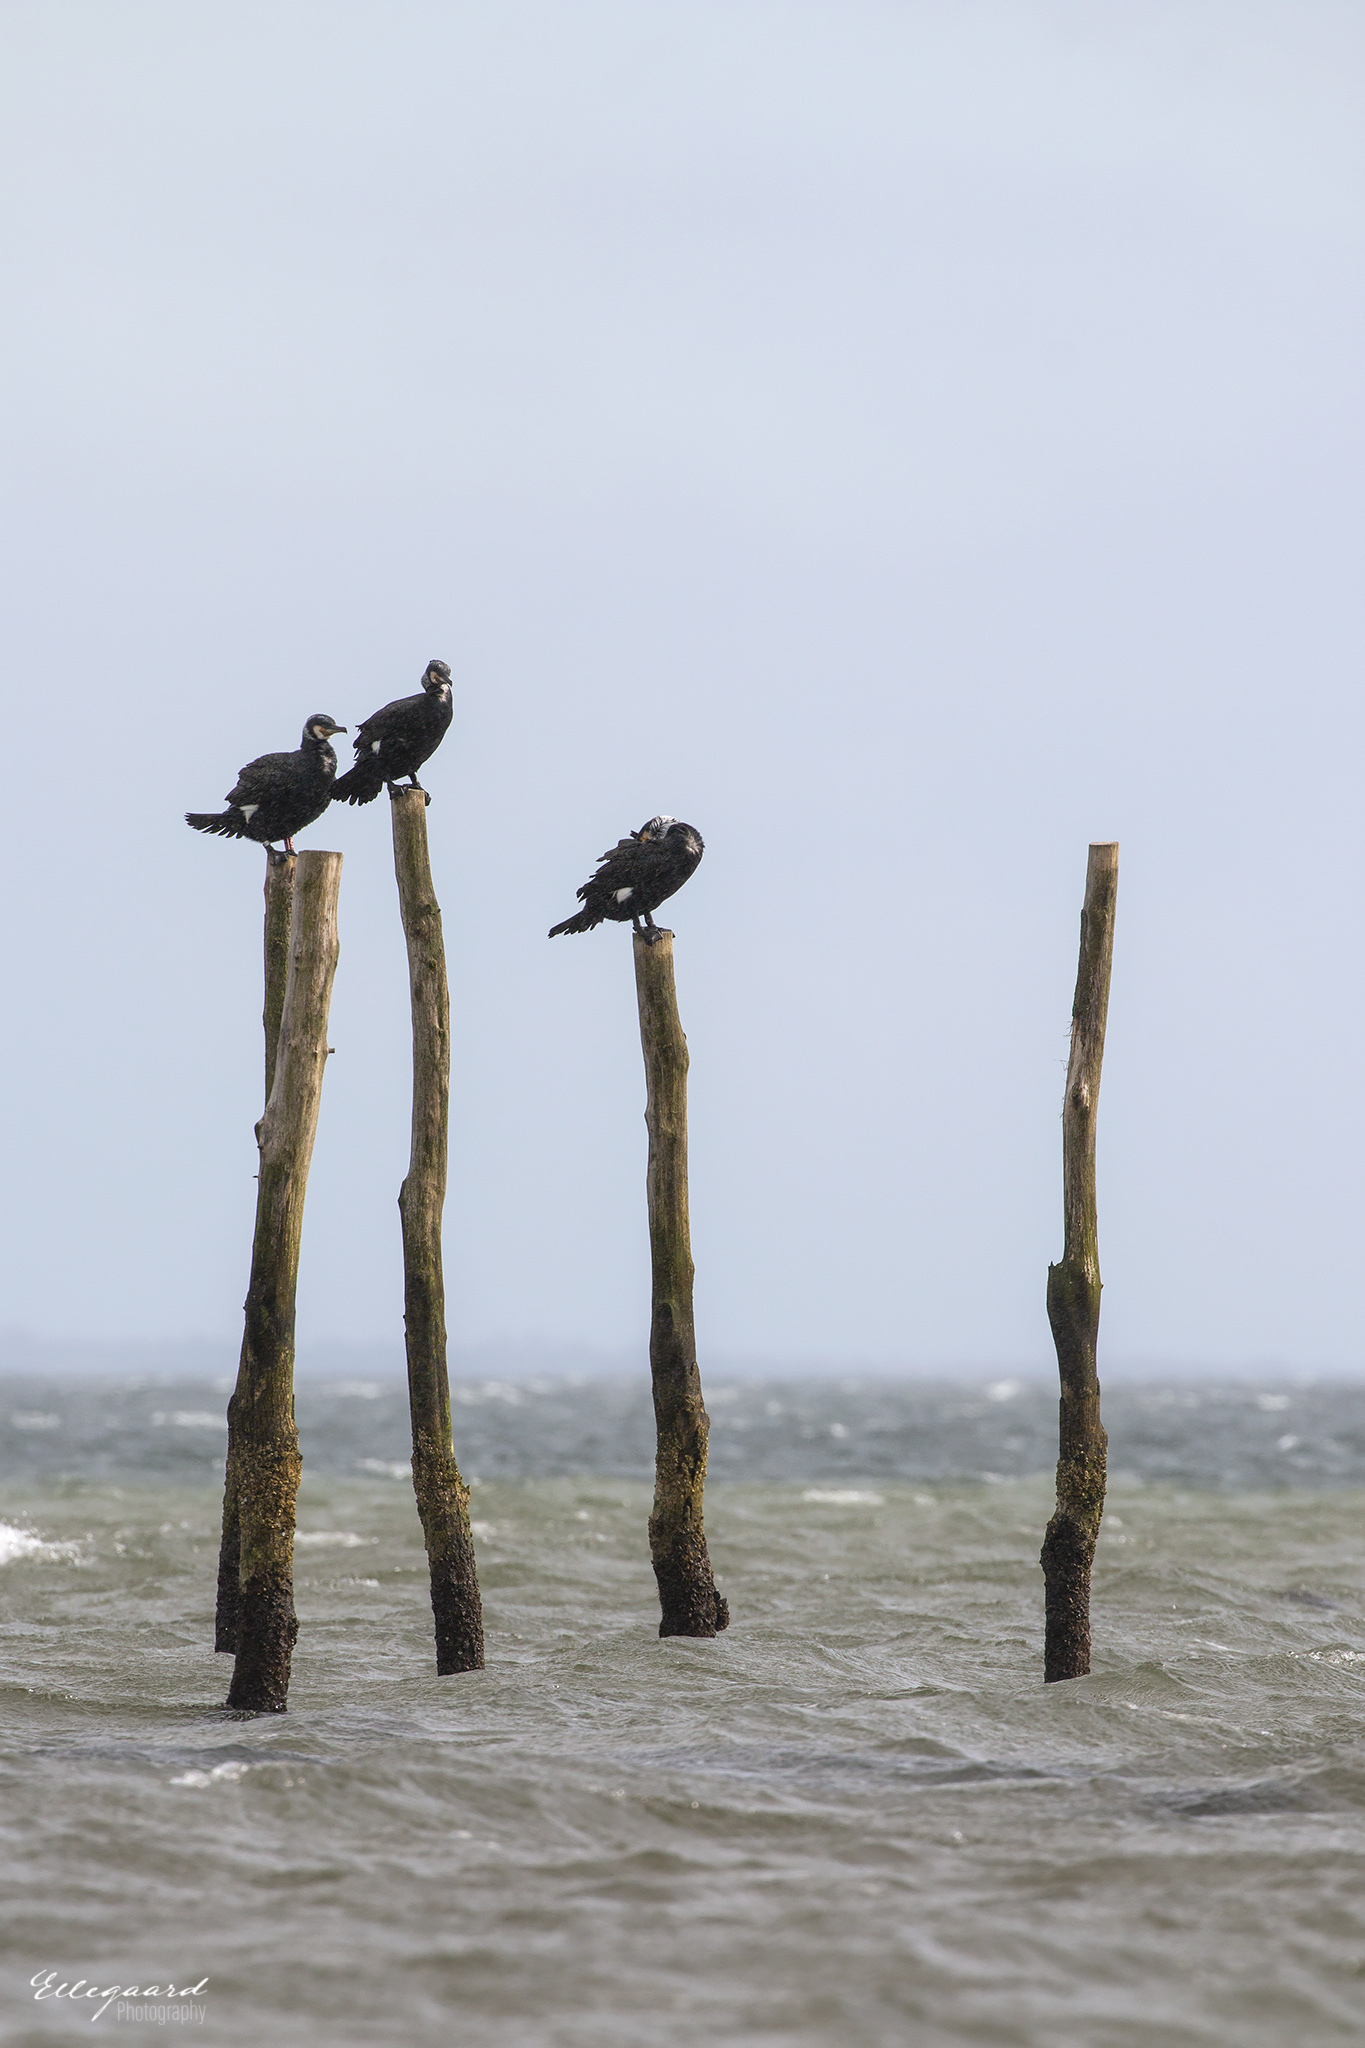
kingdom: Animalia
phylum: Chordata
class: Aves
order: Suliformes
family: Phalacrocoracidae
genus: Phalacrocorax
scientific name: Phalacrocorax carbo
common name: Great cormorant
